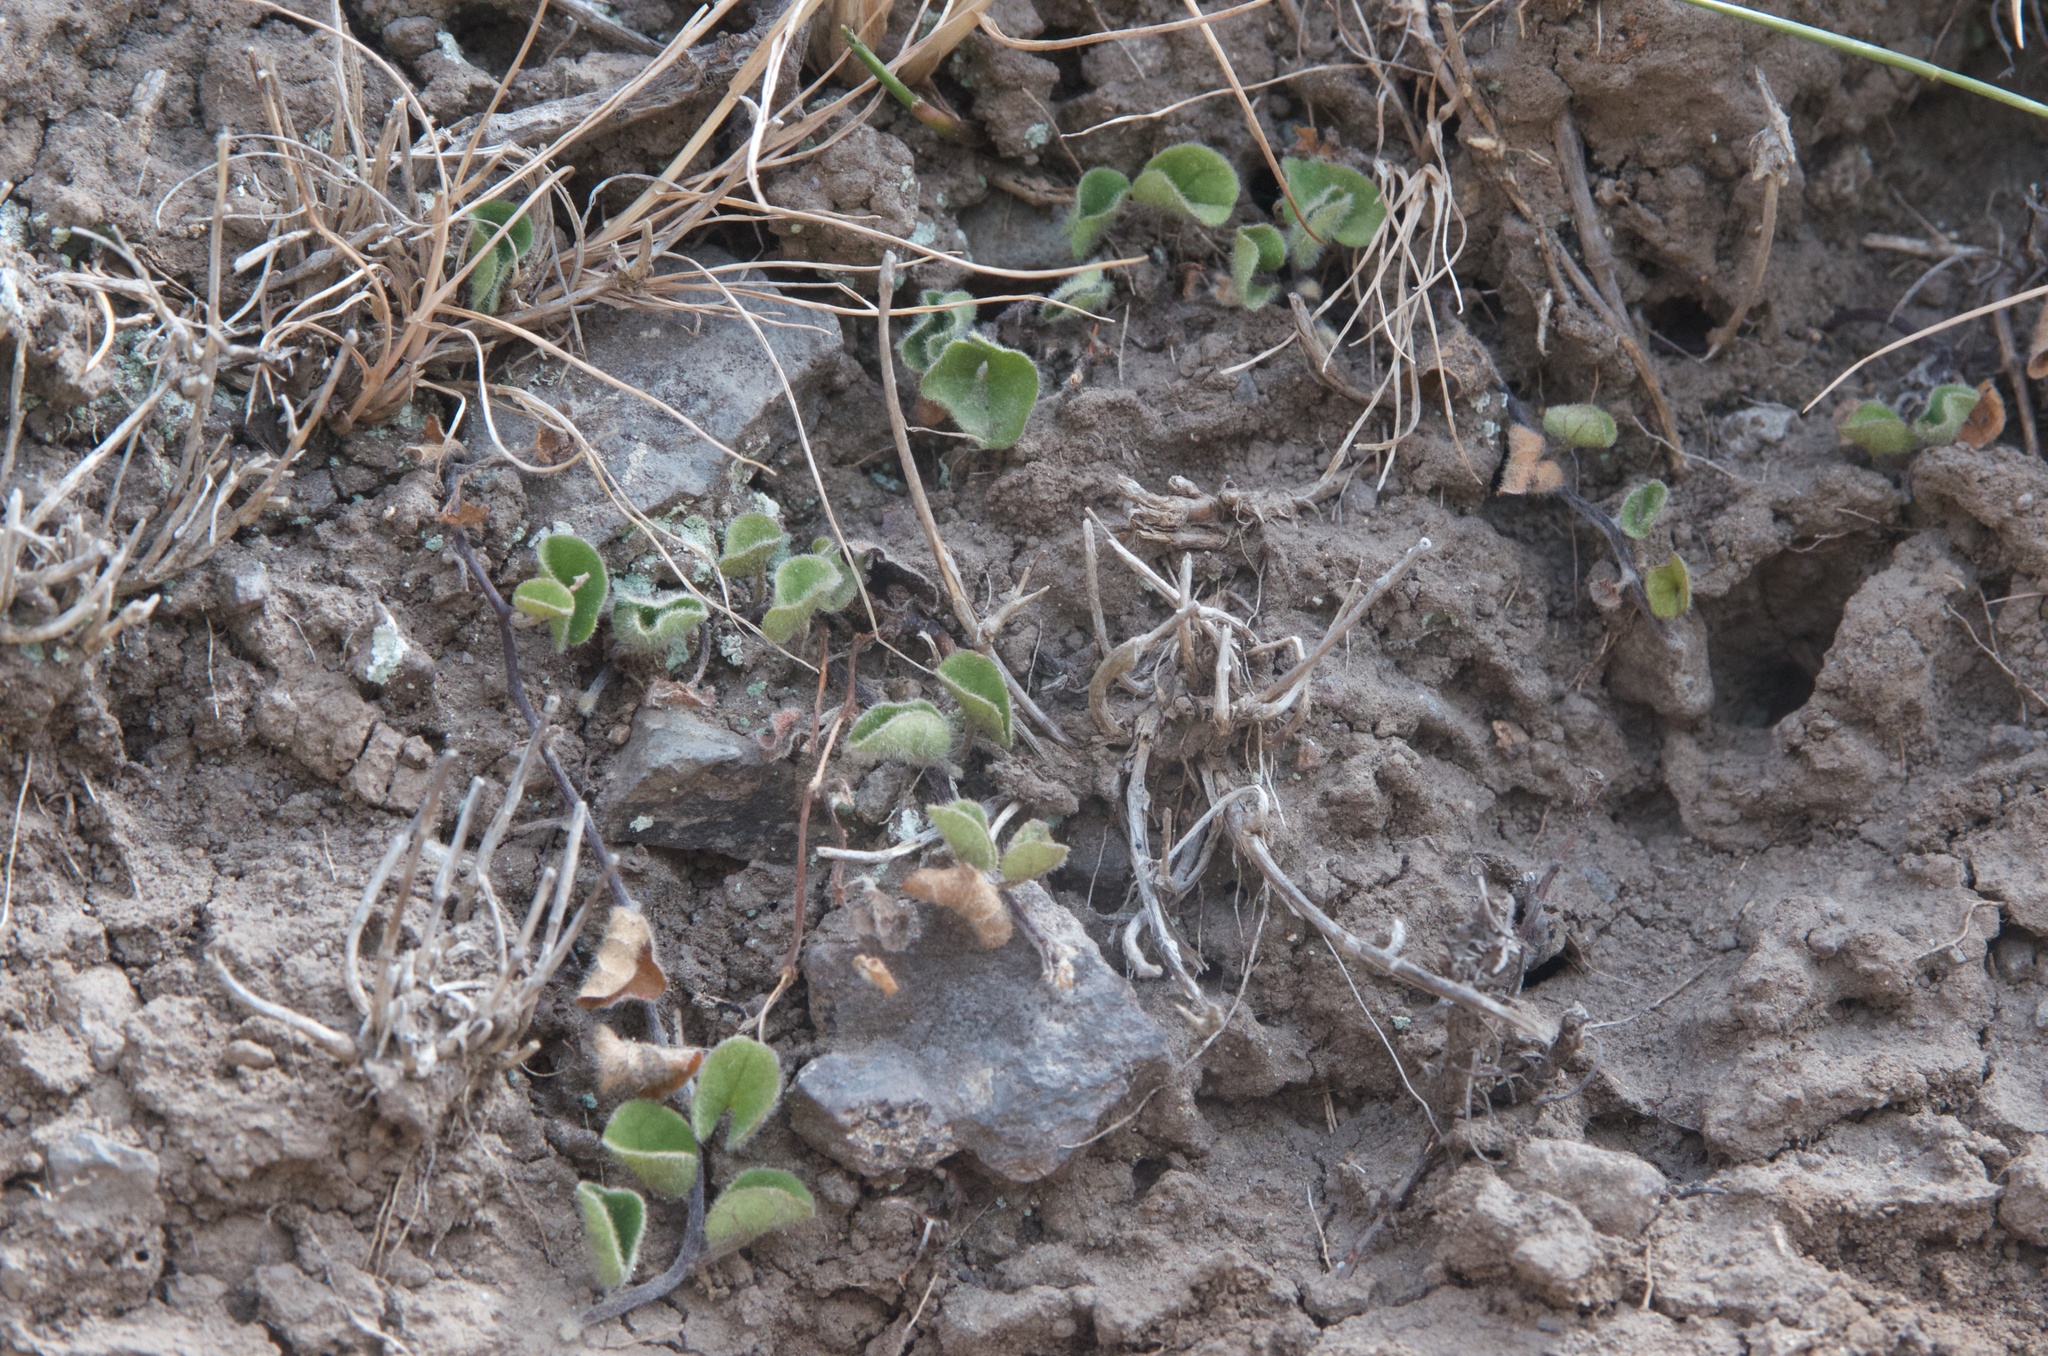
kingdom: Plantae
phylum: Tracheophyta
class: Magnoliopsida
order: Solanales
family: Convolvulaceae
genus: Dichondra
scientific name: Dichondra repens
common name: Kidneyweed
